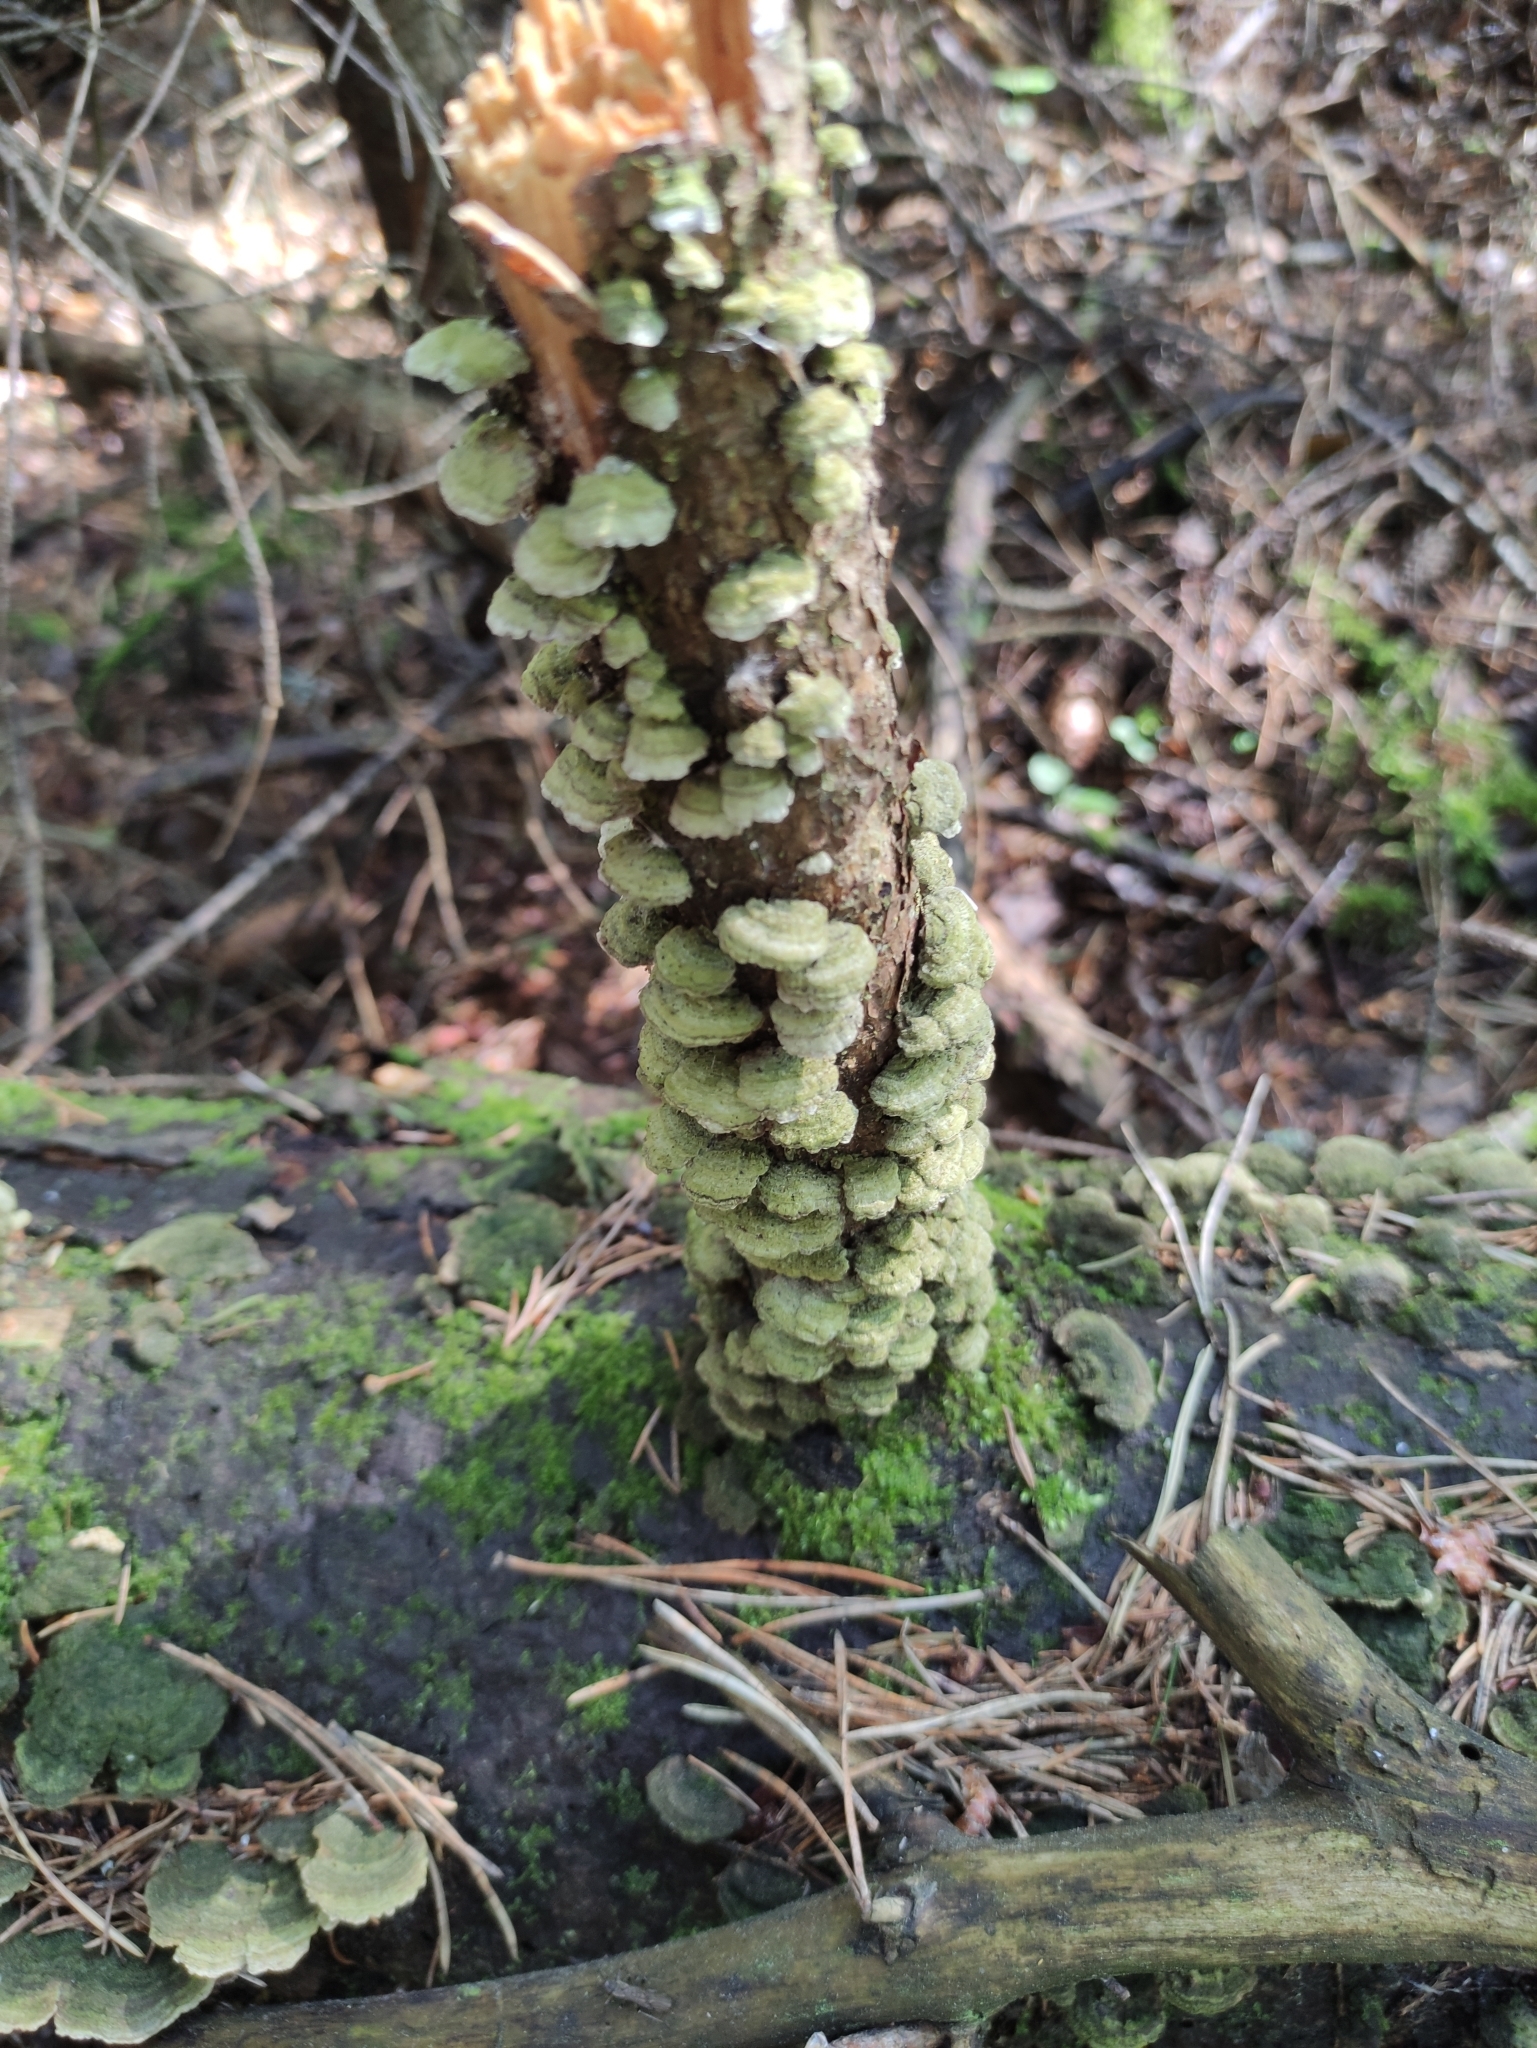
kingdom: Fungi
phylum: Basidiomycota
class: Agaricomycetes
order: Hymenochaetales
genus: Trichaptum
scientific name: Trichaptum abietinum
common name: Purplepore bracket
